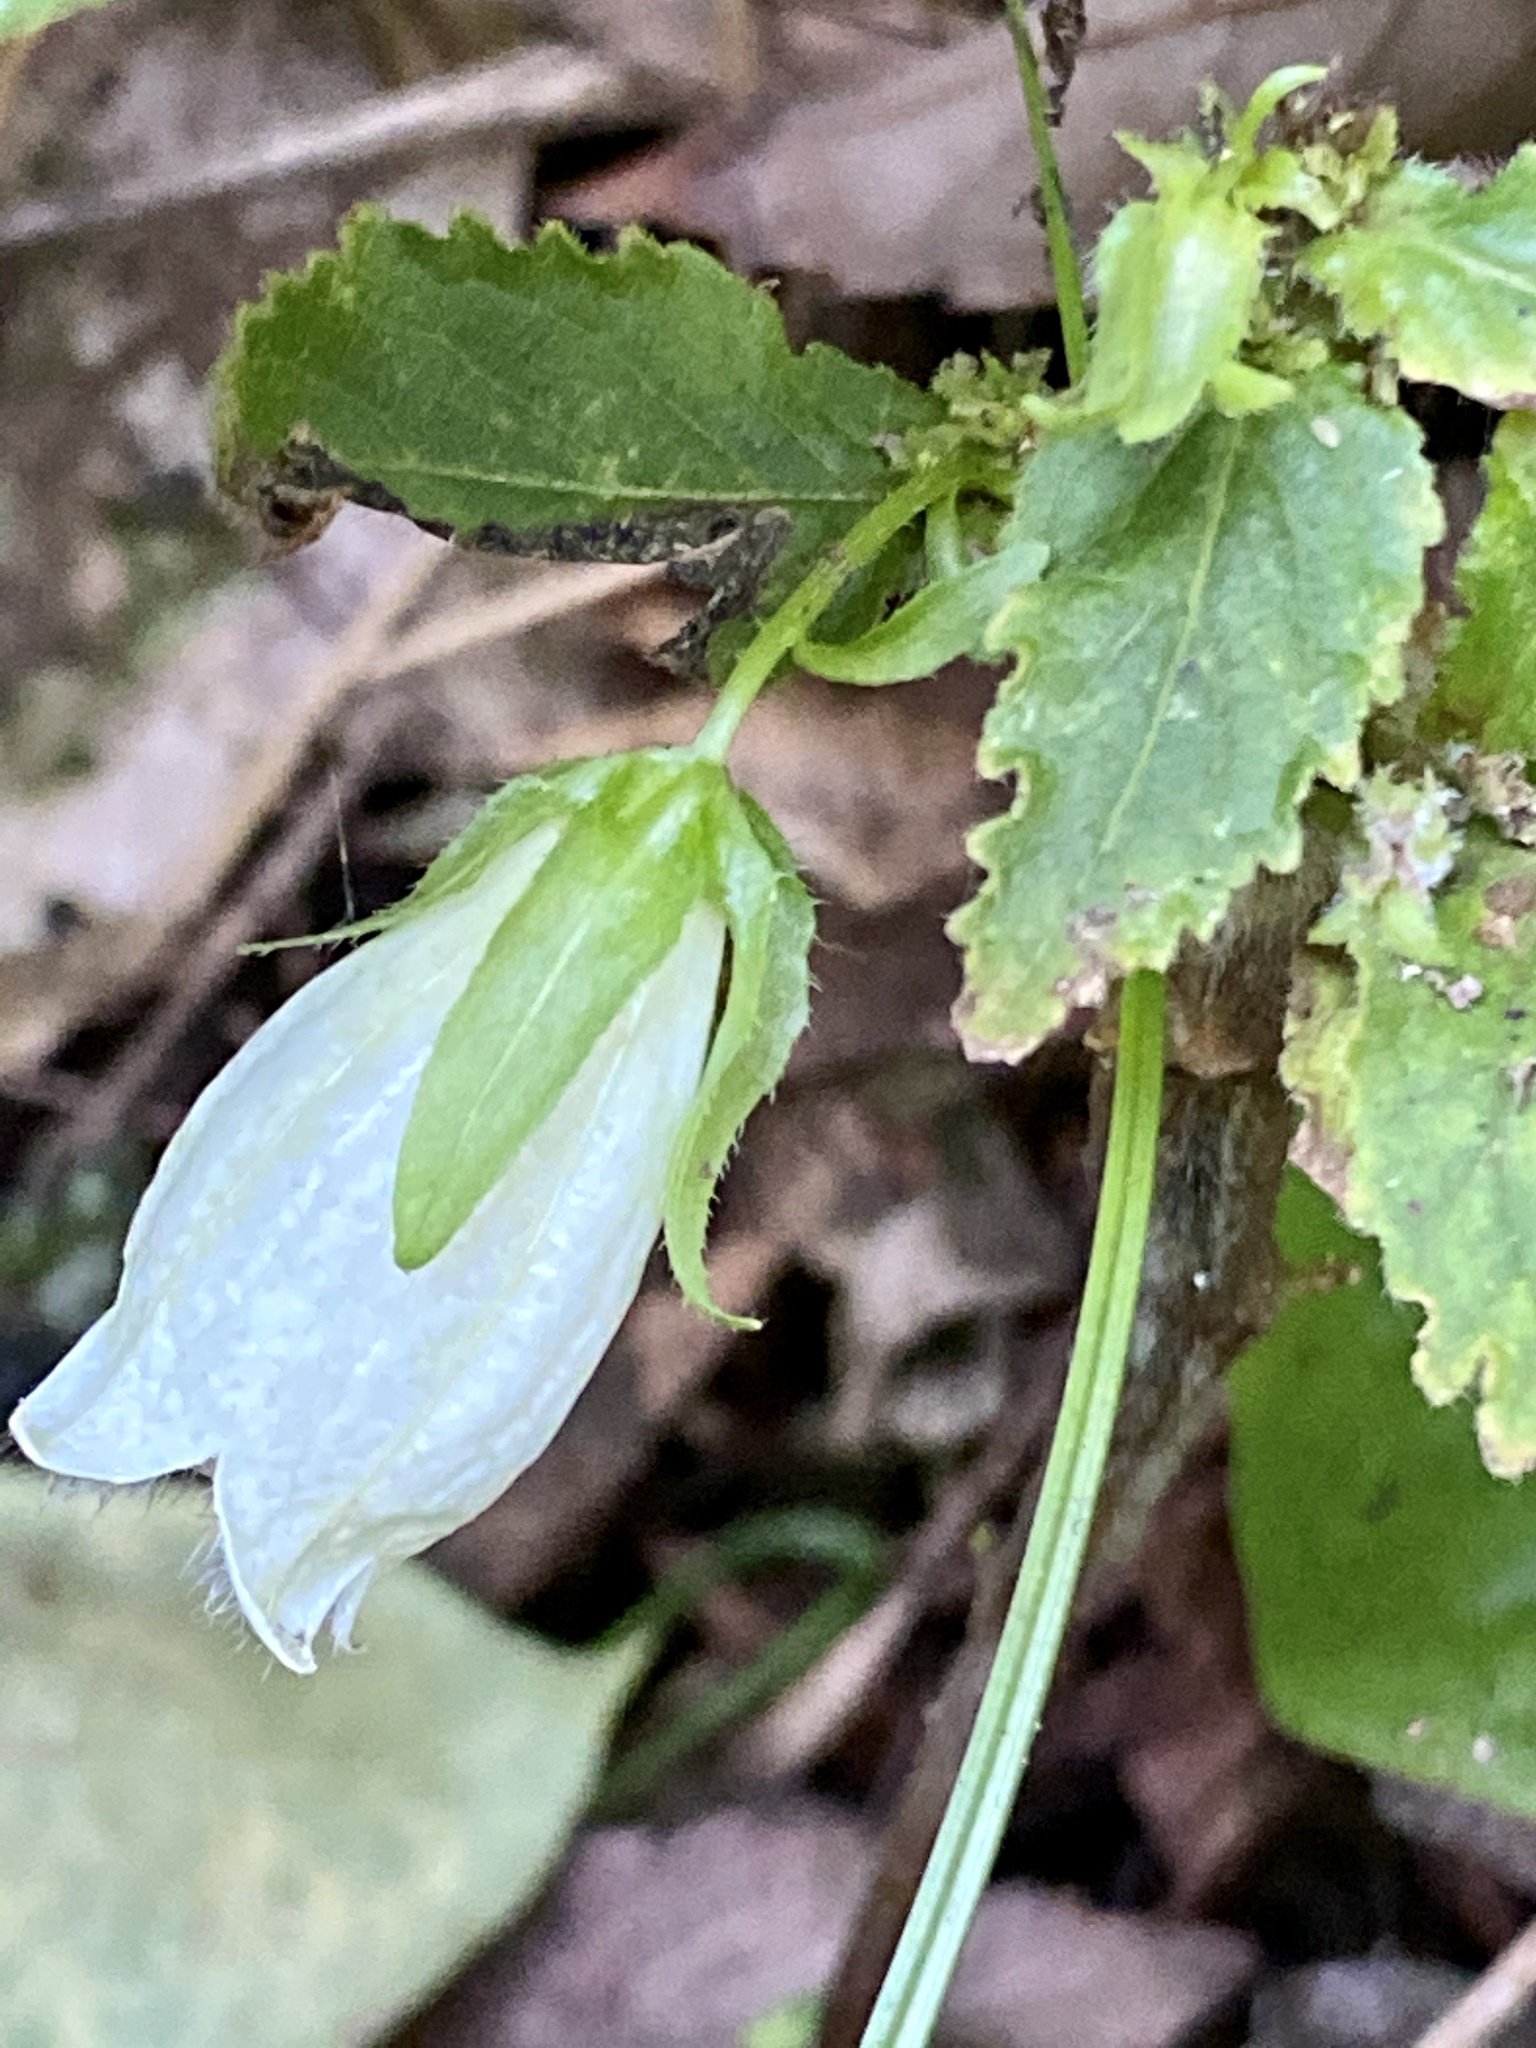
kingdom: Plantae
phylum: Tracheophyta
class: Magnoliopsida
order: Asterales
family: Campanulaceae
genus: Campanula
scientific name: Campanula punctata
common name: Spotted bellflower
